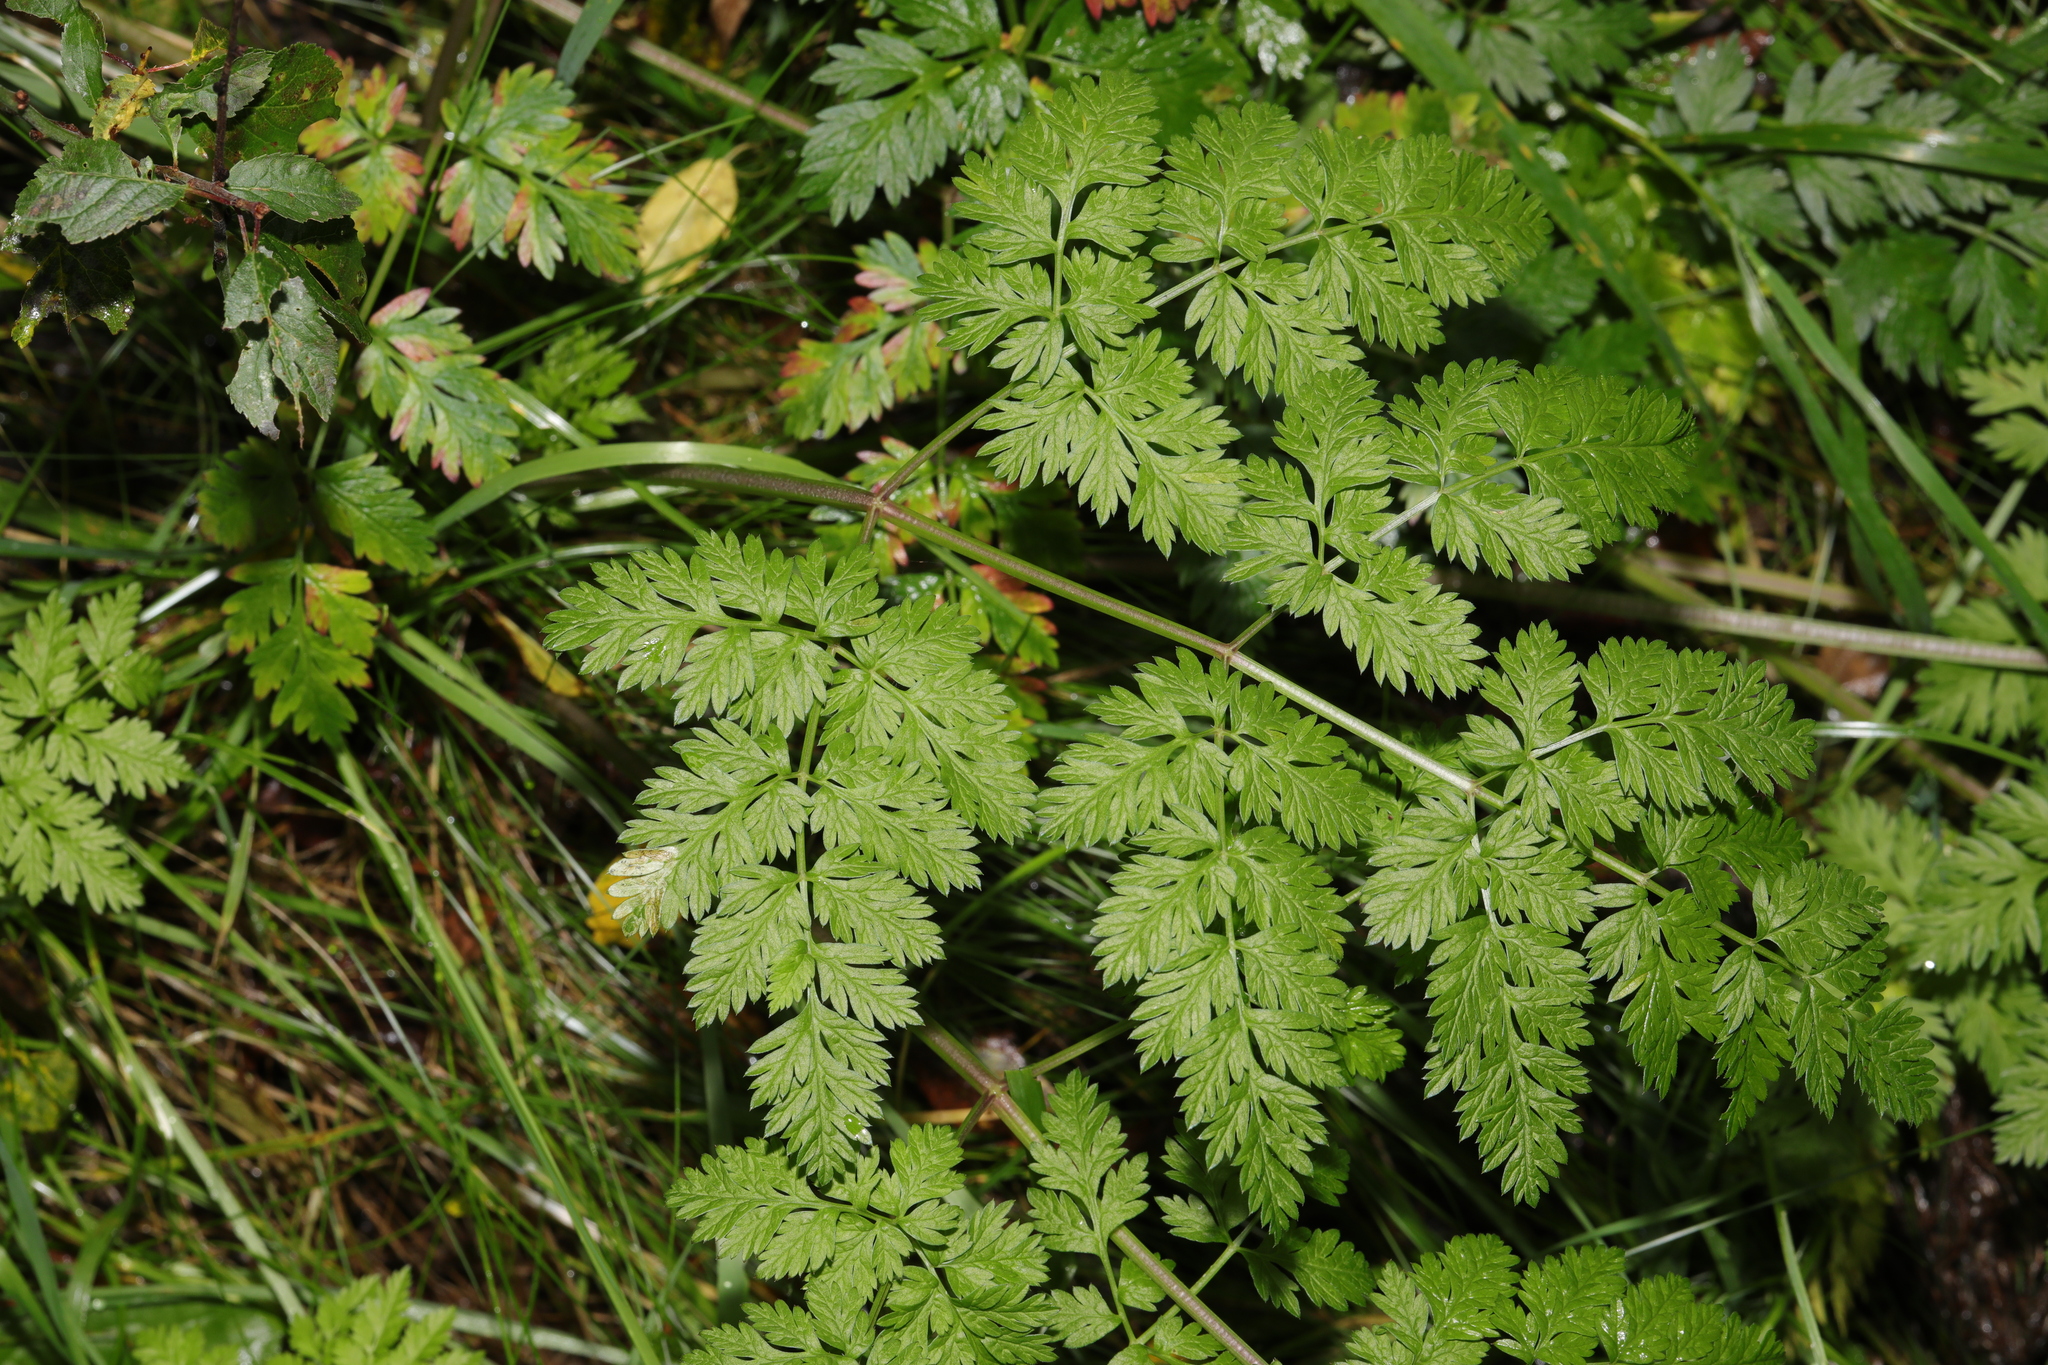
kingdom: Plantae
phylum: Tracheophyta
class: Magnoliopsida
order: Apiales
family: Apiaceae
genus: Anthriscus
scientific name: Anthriscus sylvestris
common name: Cow parsley
